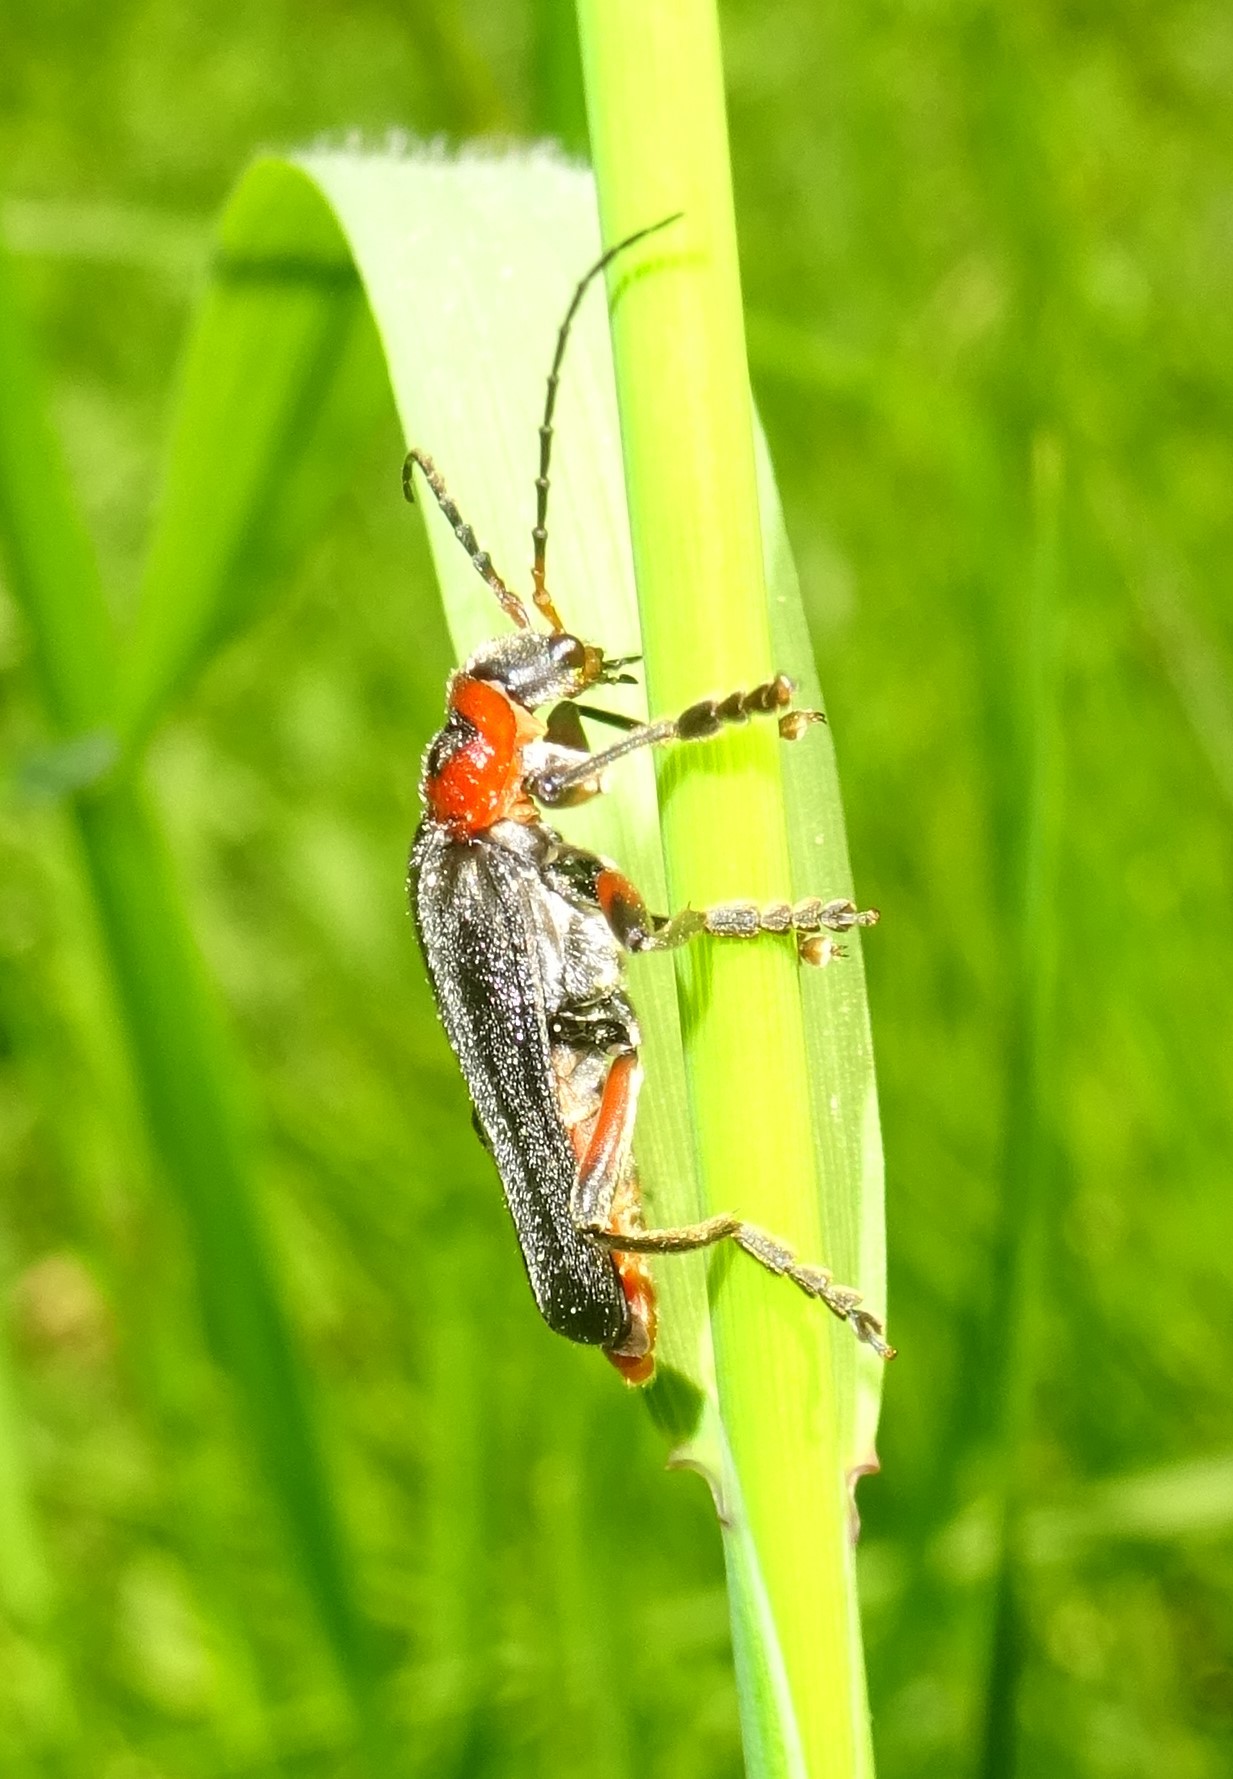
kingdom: Animalia
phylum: Arthropoda
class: Insecta
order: Coleoptera
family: Cantharidae
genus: Cantharis
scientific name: Cantharis rustica
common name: Soldier beetle
